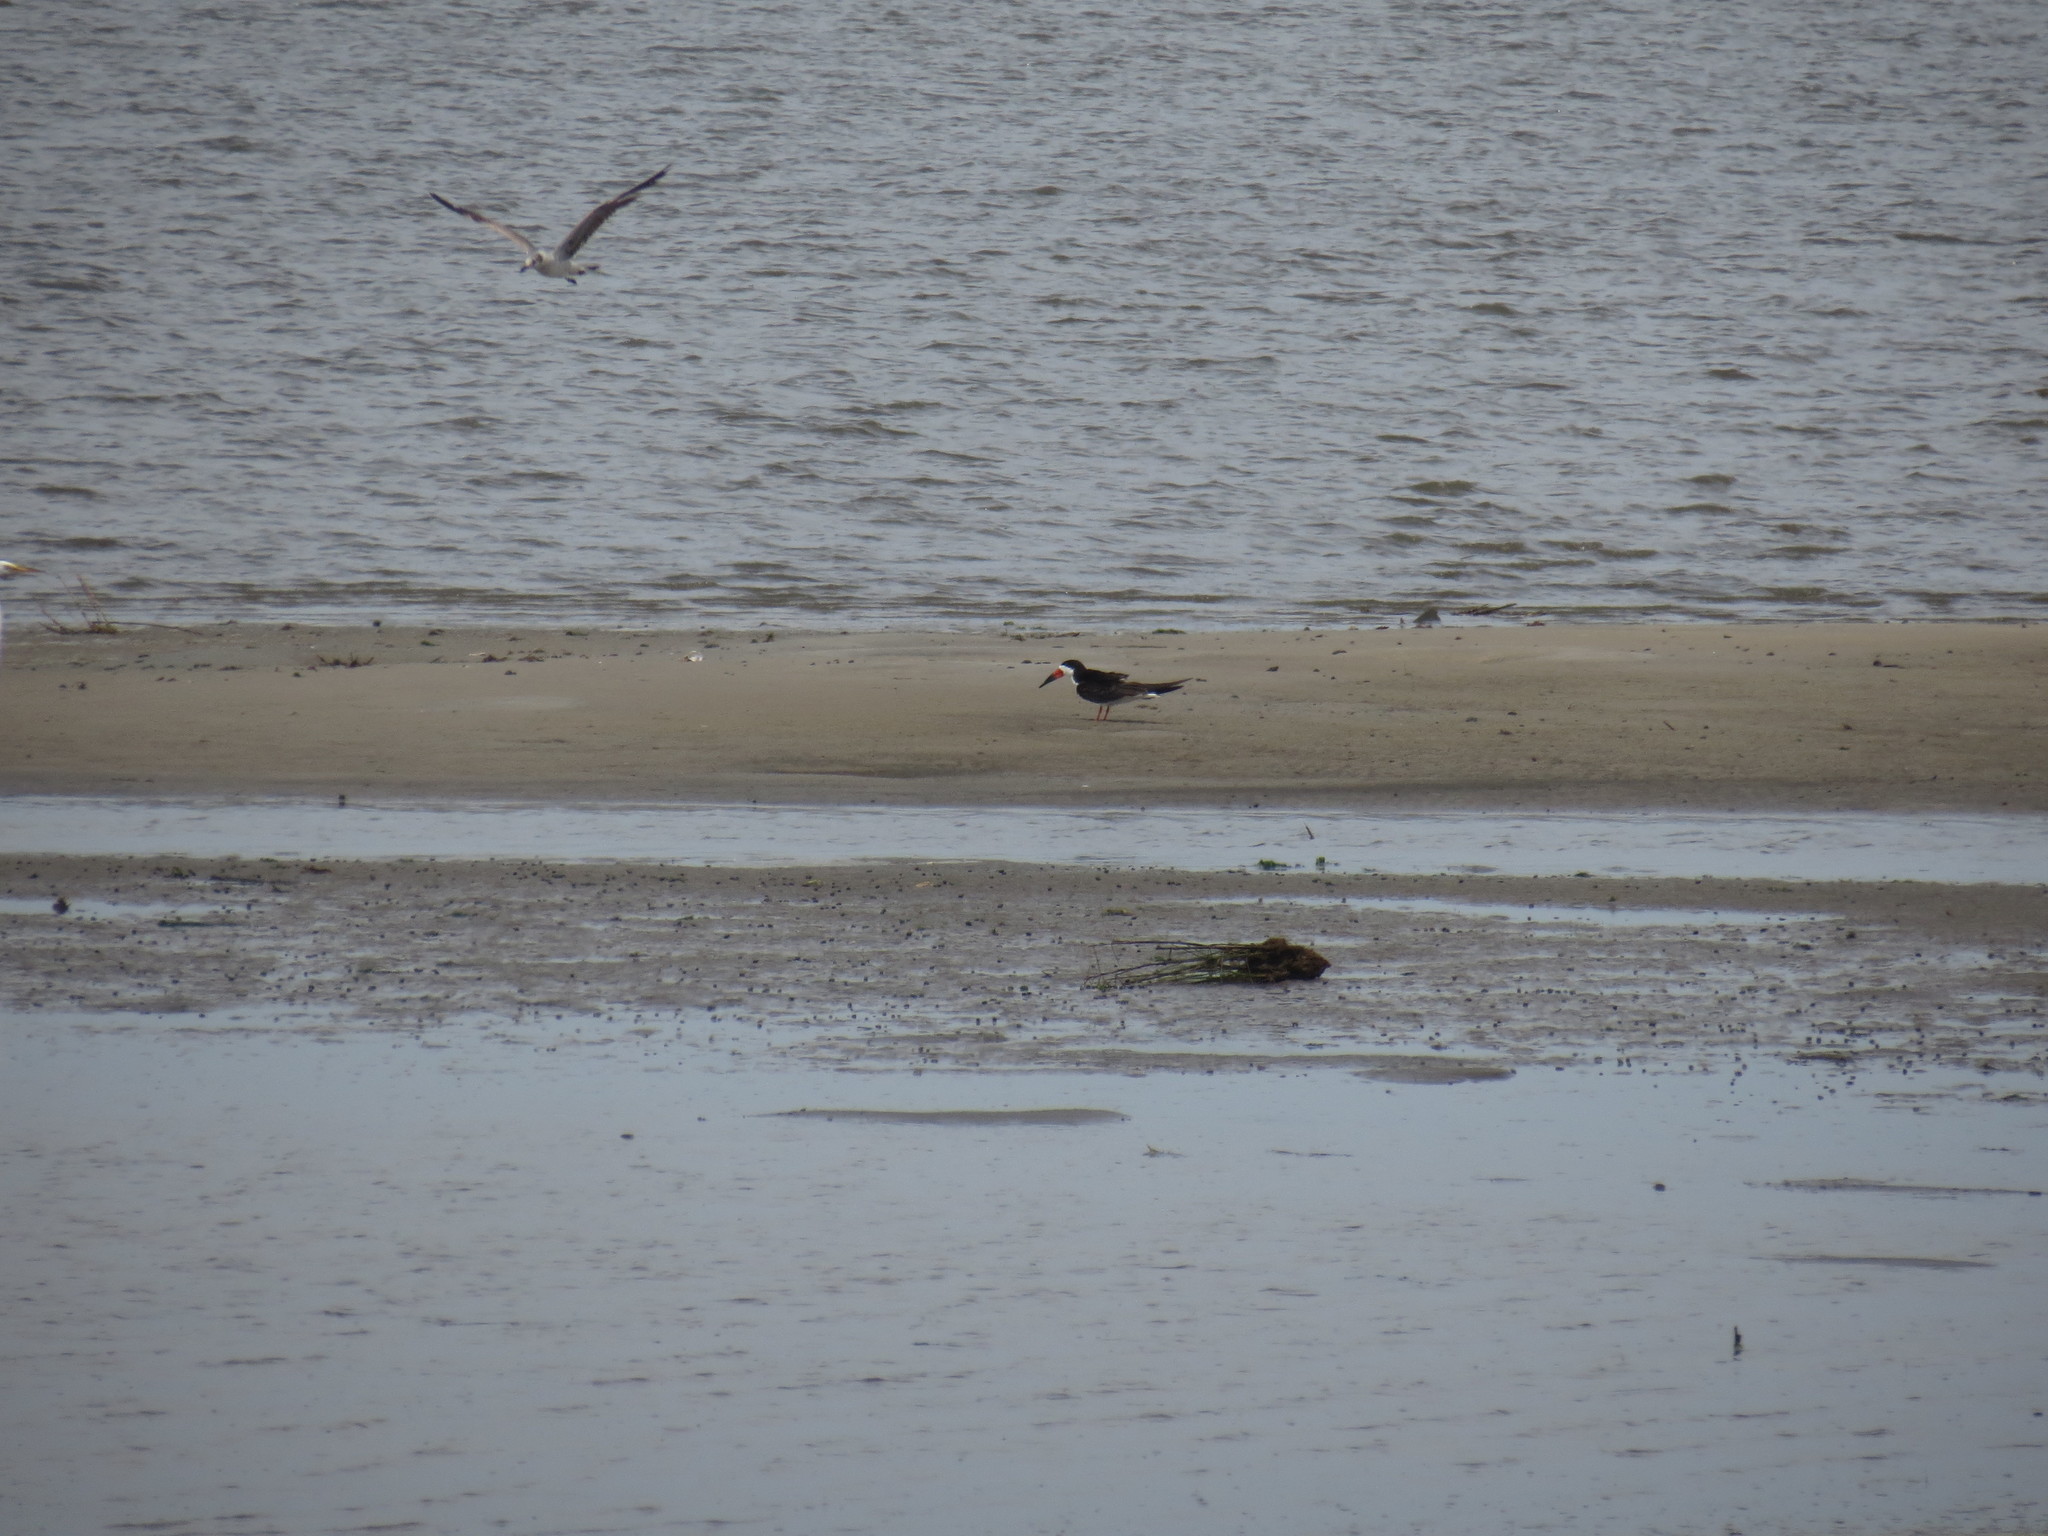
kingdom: Animalia
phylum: Chordata
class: Aves
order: Charadriiformes
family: Laridae
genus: Rynchops
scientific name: Rynchops niger
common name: Black skimmer
